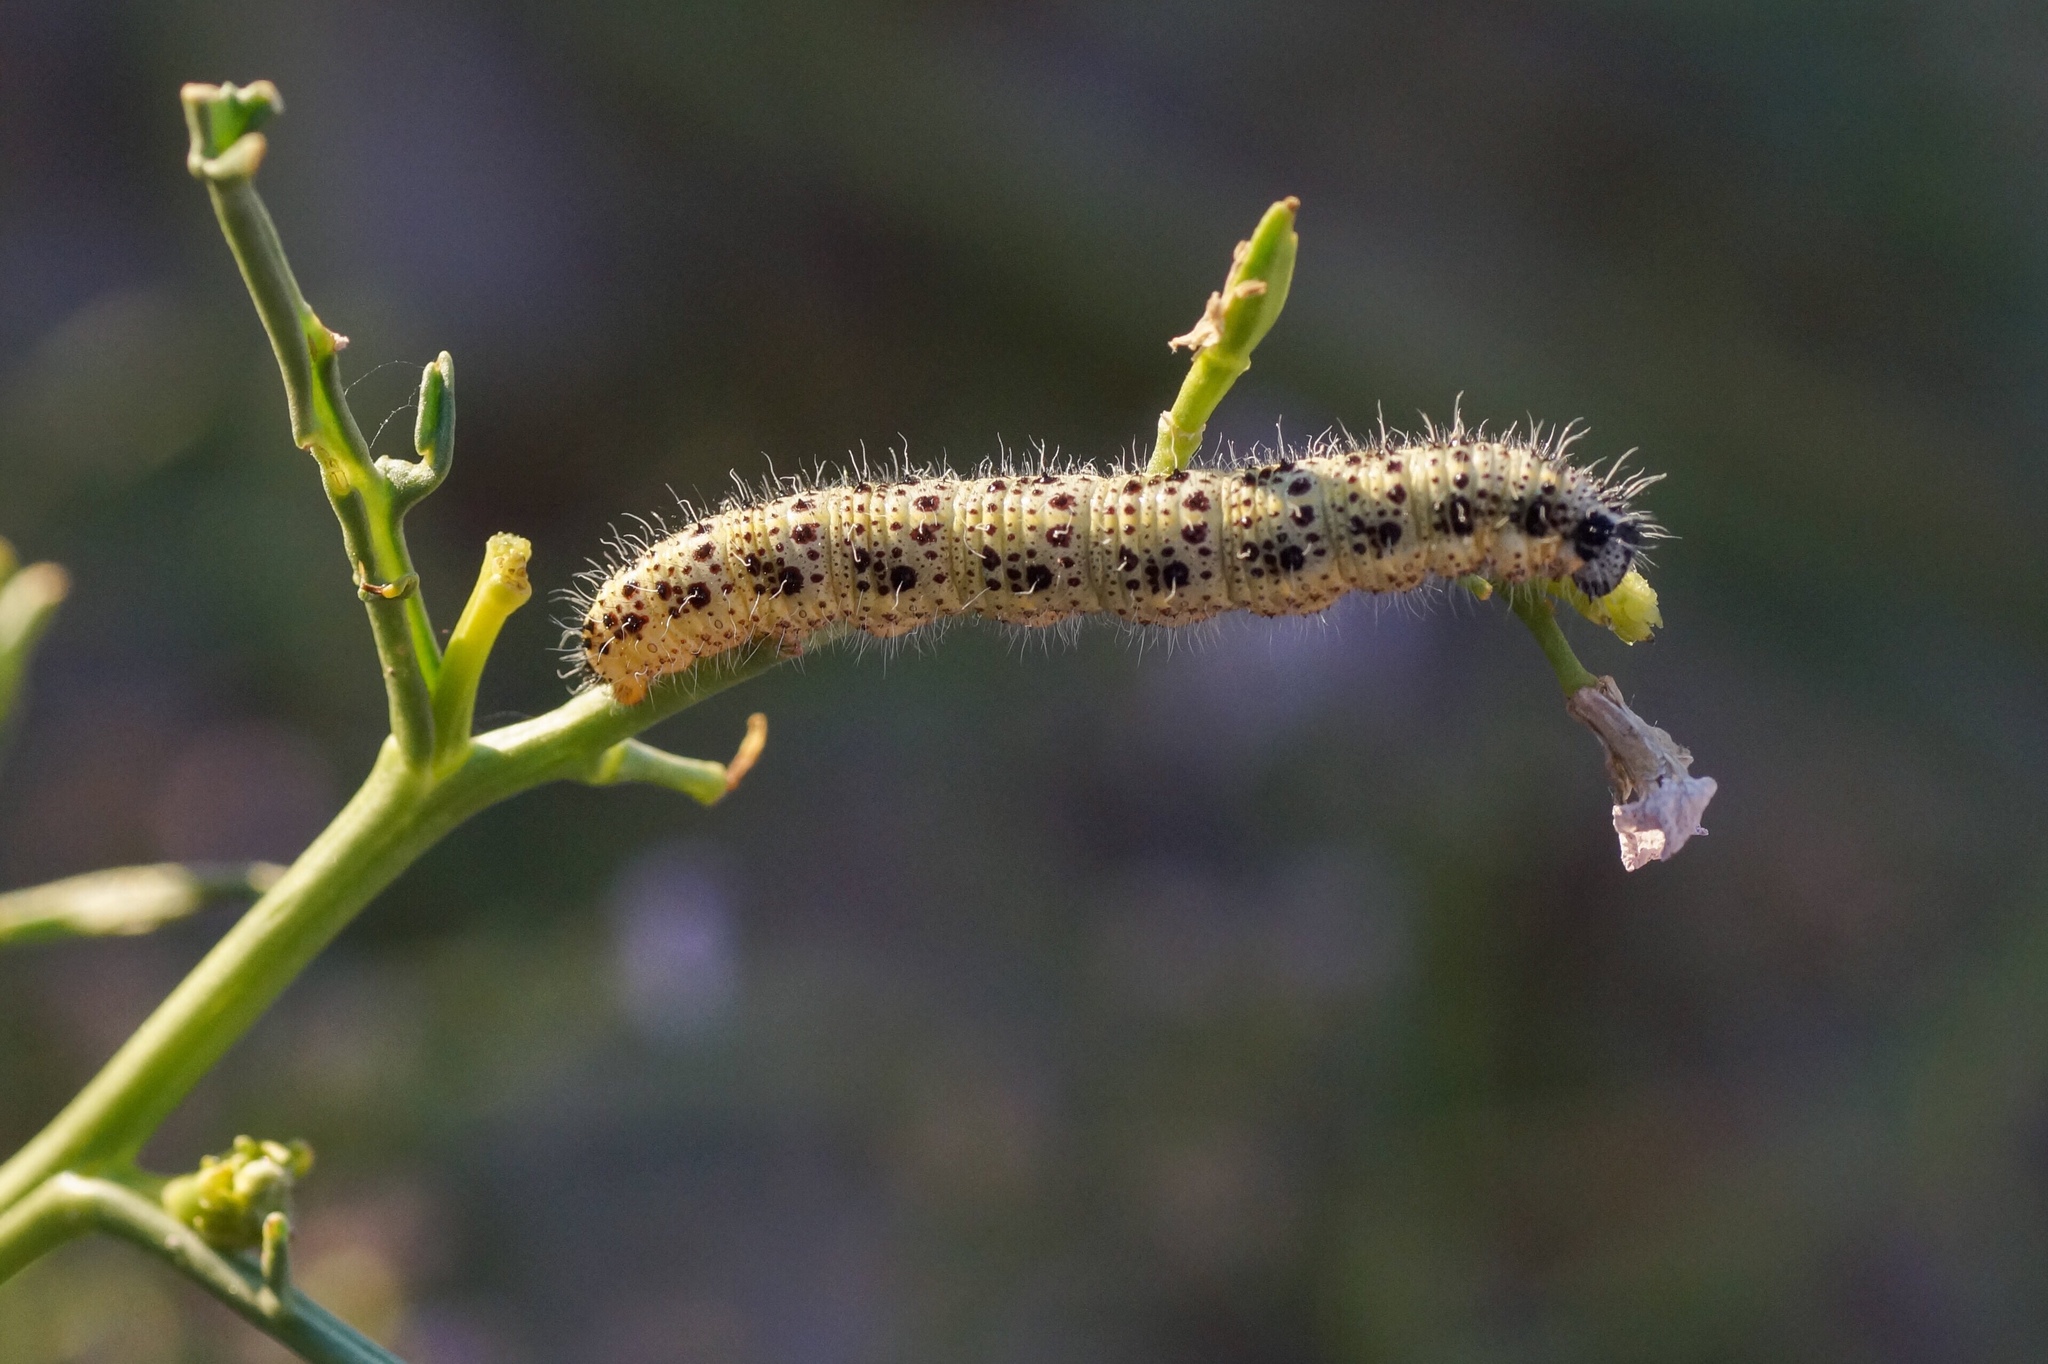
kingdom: Animalia
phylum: Arthropoda
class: Insecta
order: Lepidoptera
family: Pieridae
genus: Pieris
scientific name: Pieris brassicae
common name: Large white
